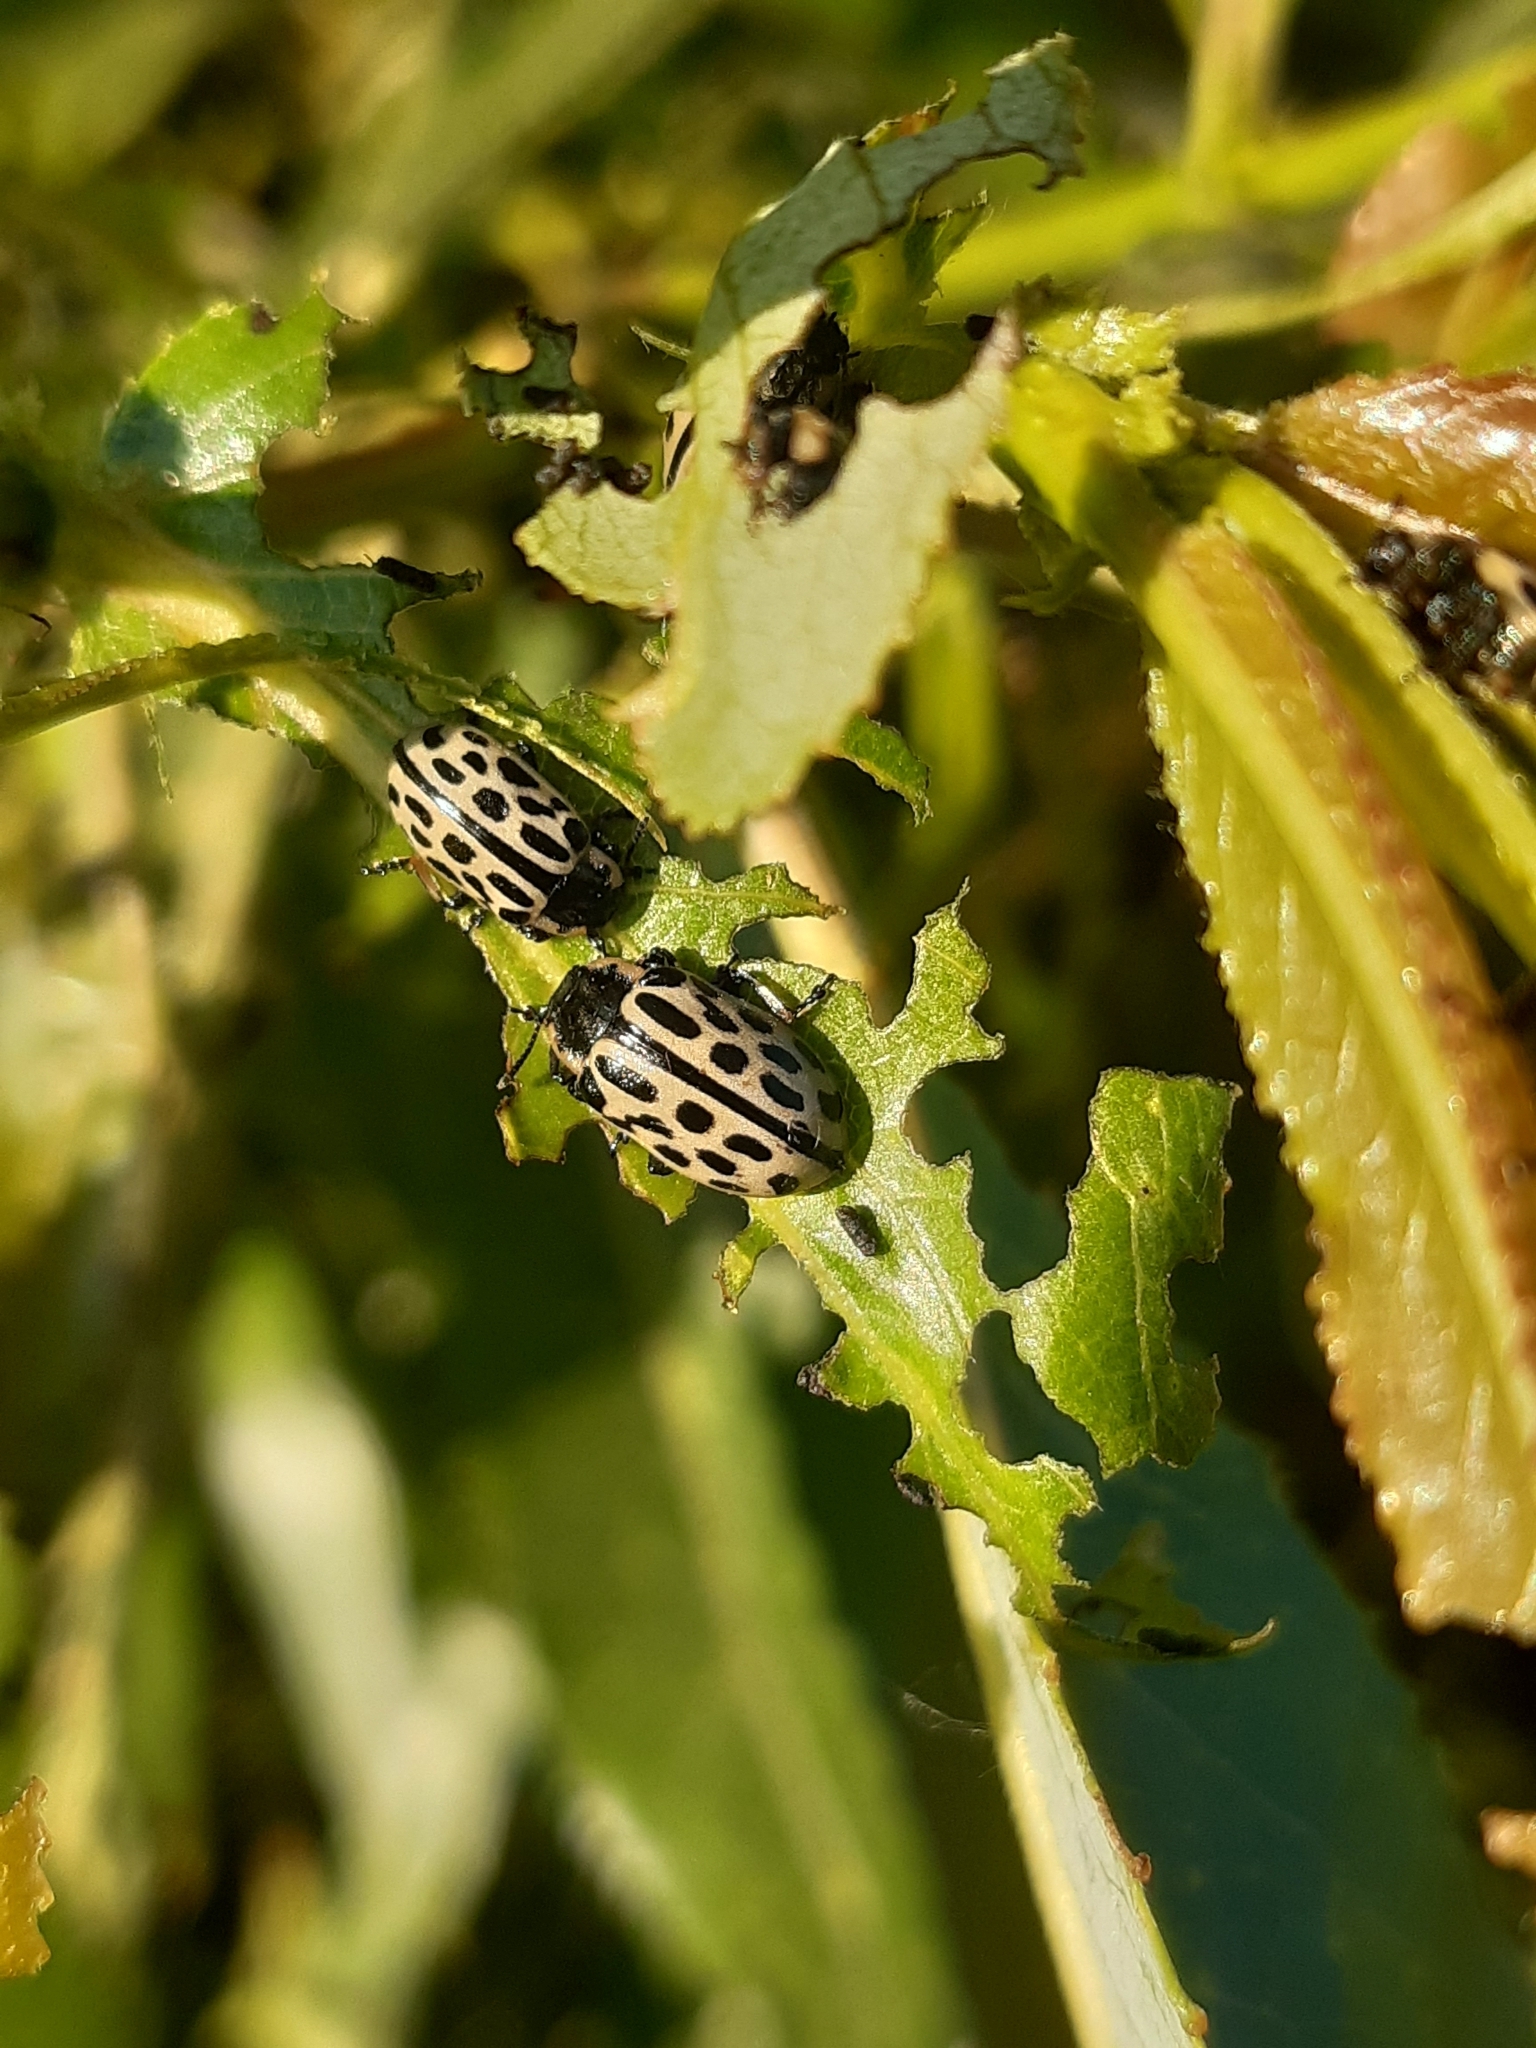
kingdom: Animalia
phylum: Arthropoda
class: Insecta
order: Coleoptera
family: Chrysomelidae
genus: Chrysomela
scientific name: Chrysomela vigintipunctata
